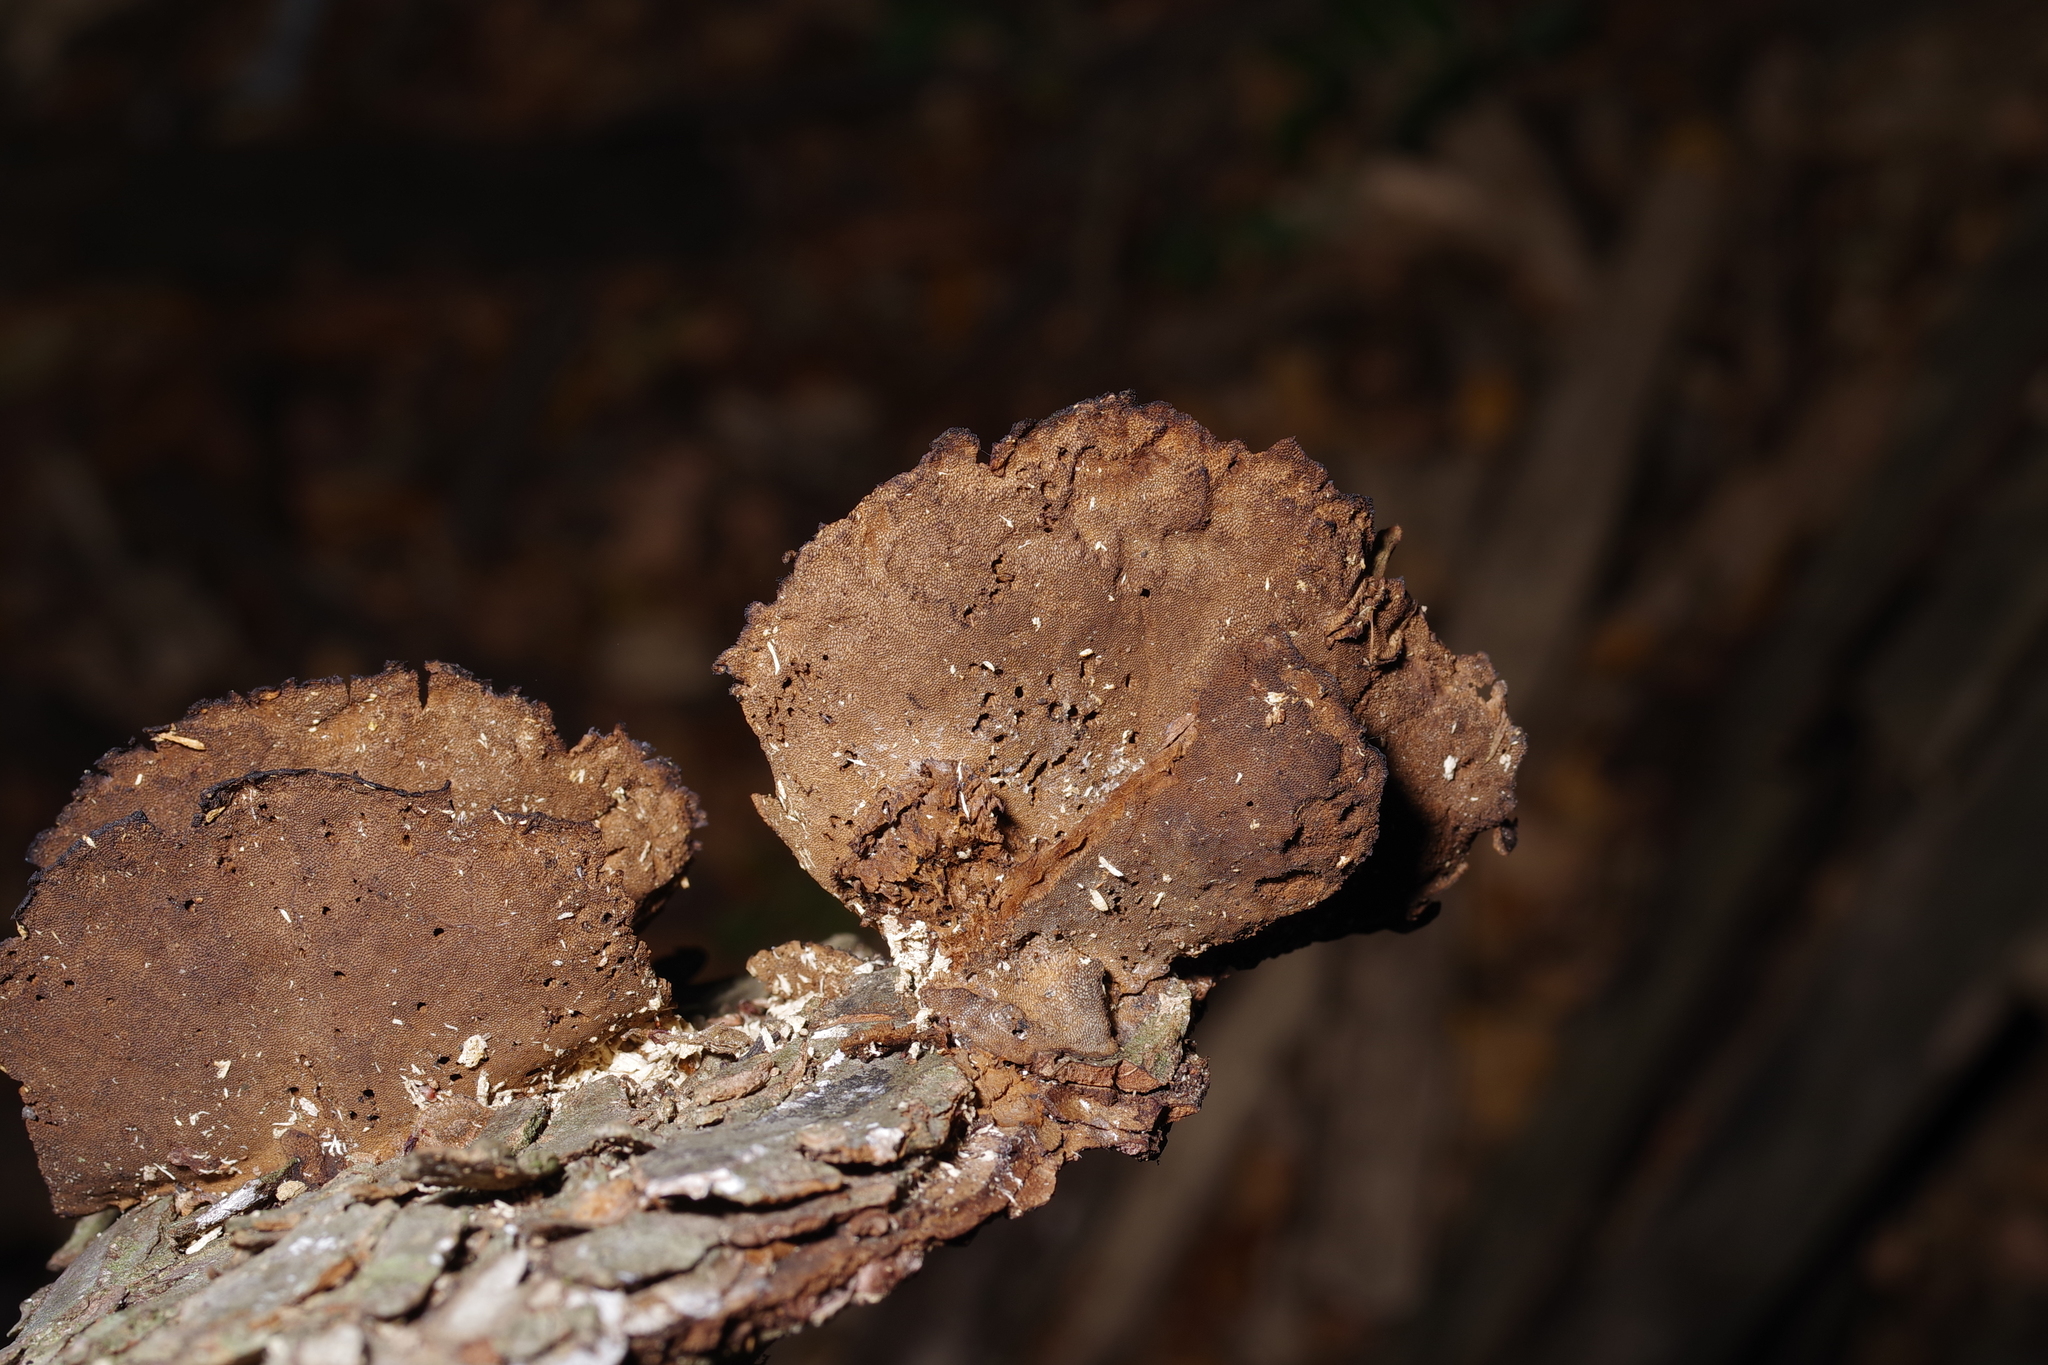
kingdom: Fungi
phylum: Basidiomycota
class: Agaricomycetes
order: Polyporales
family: Cerrenaceae
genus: Cerrena
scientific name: Cerrena hydnoides
